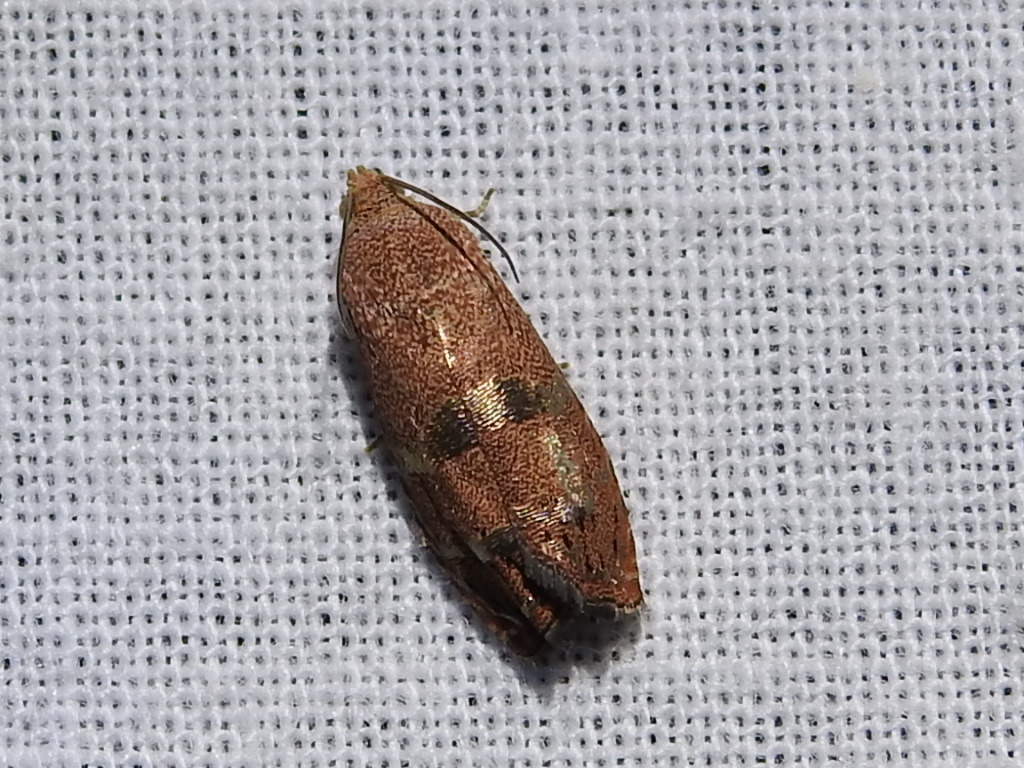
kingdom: Animalia
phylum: Arthropoda
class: Insecta
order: Lepidoptera
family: Tortricidae
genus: Cydia
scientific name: Cydia latiferreana
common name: Filbertworm moth
